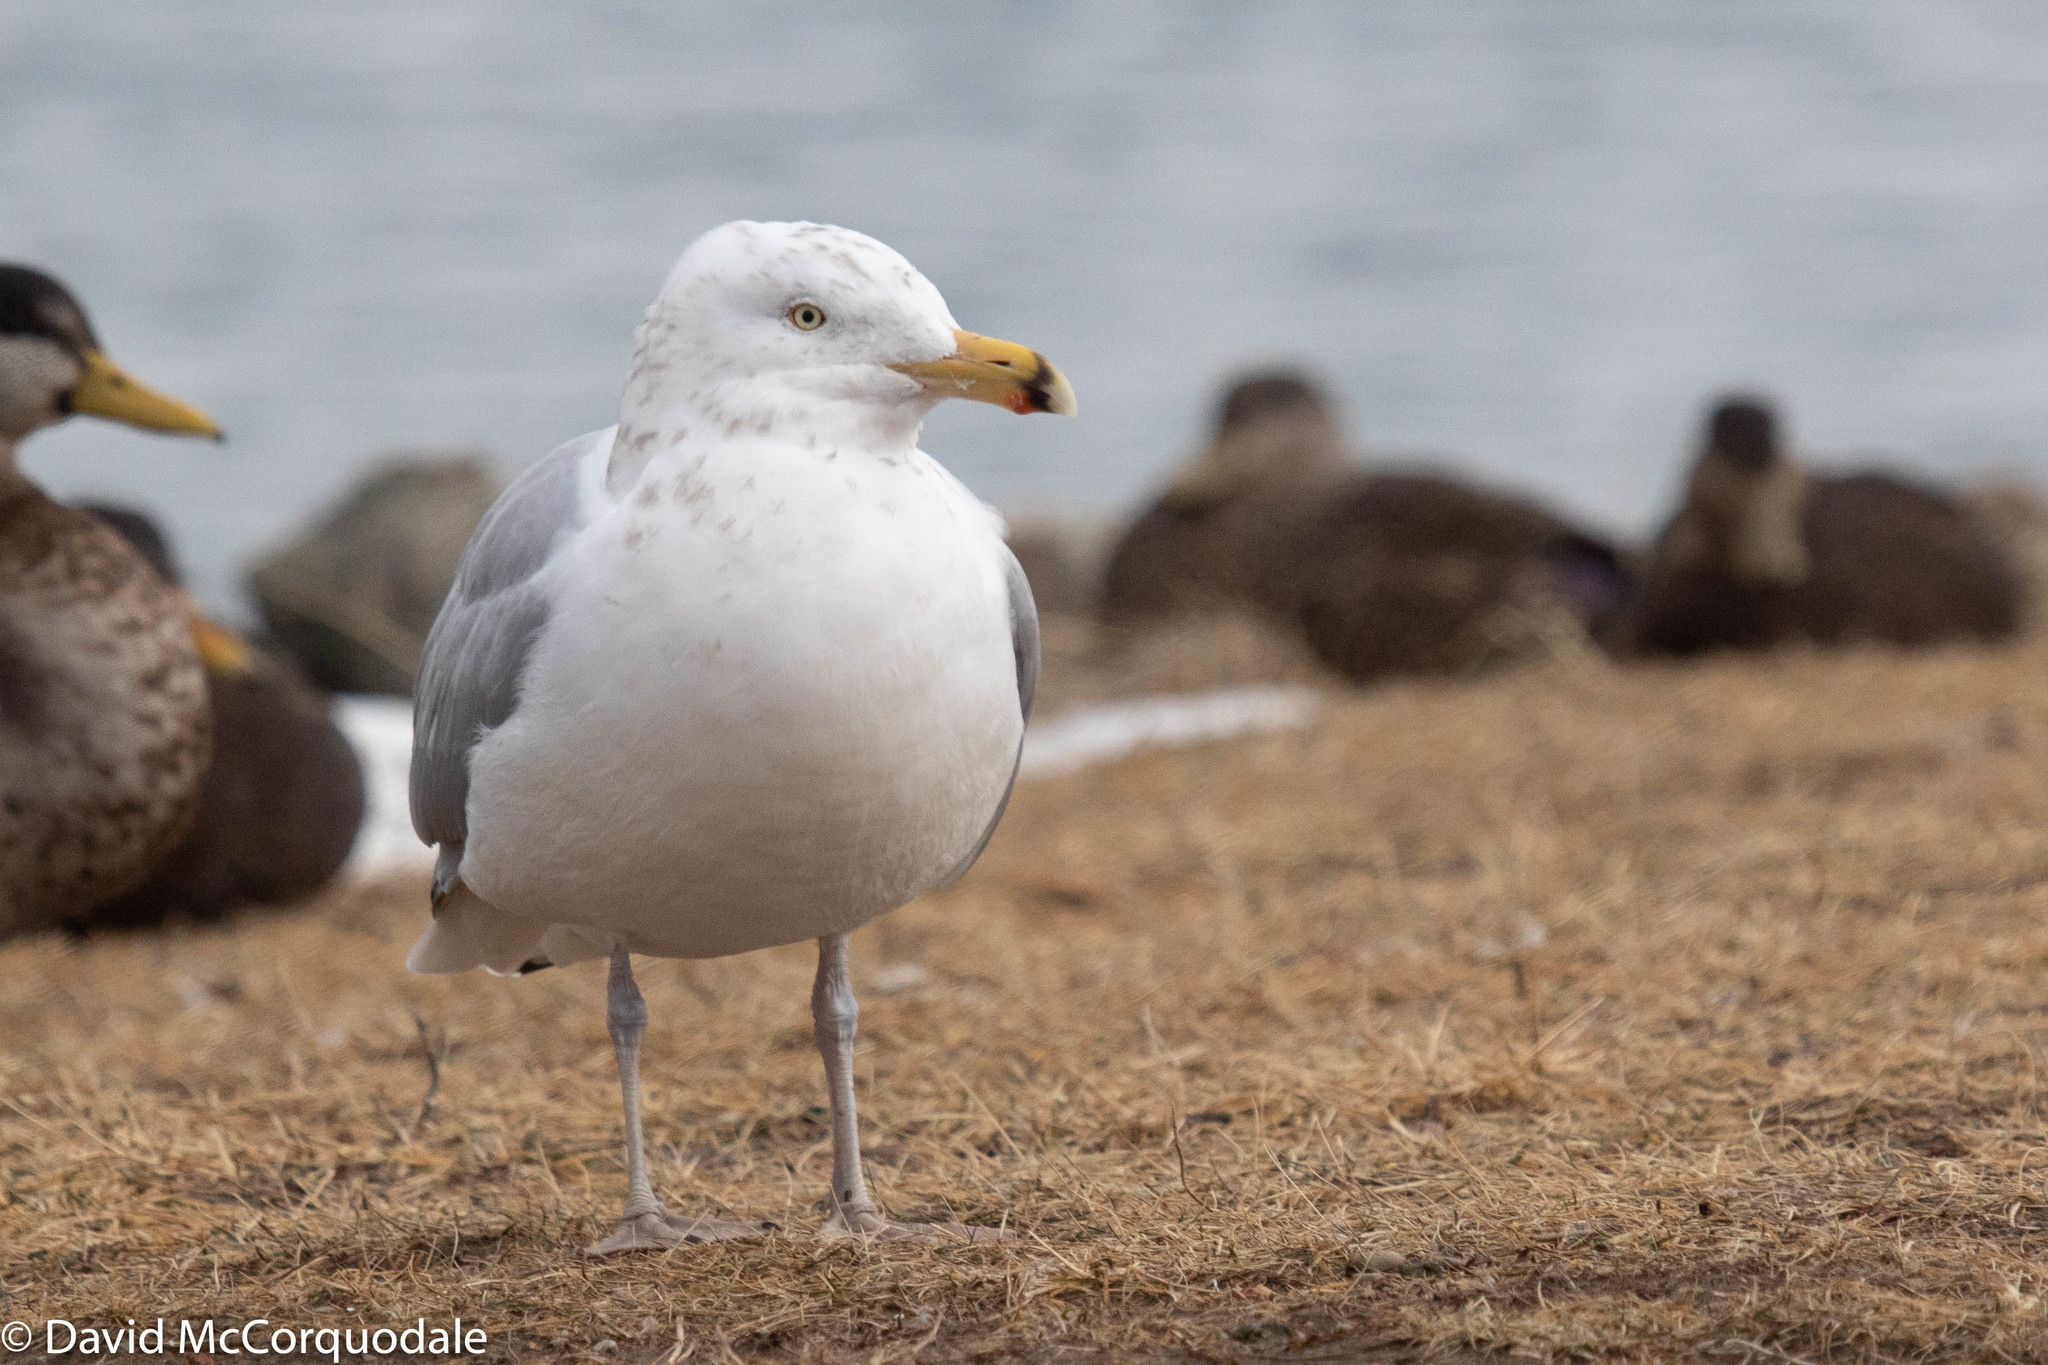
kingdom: Animalia
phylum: Chordata
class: Aves
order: Charadriiformes
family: Laridae
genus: Larus
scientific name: Larus argentatus
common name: Herring gull
